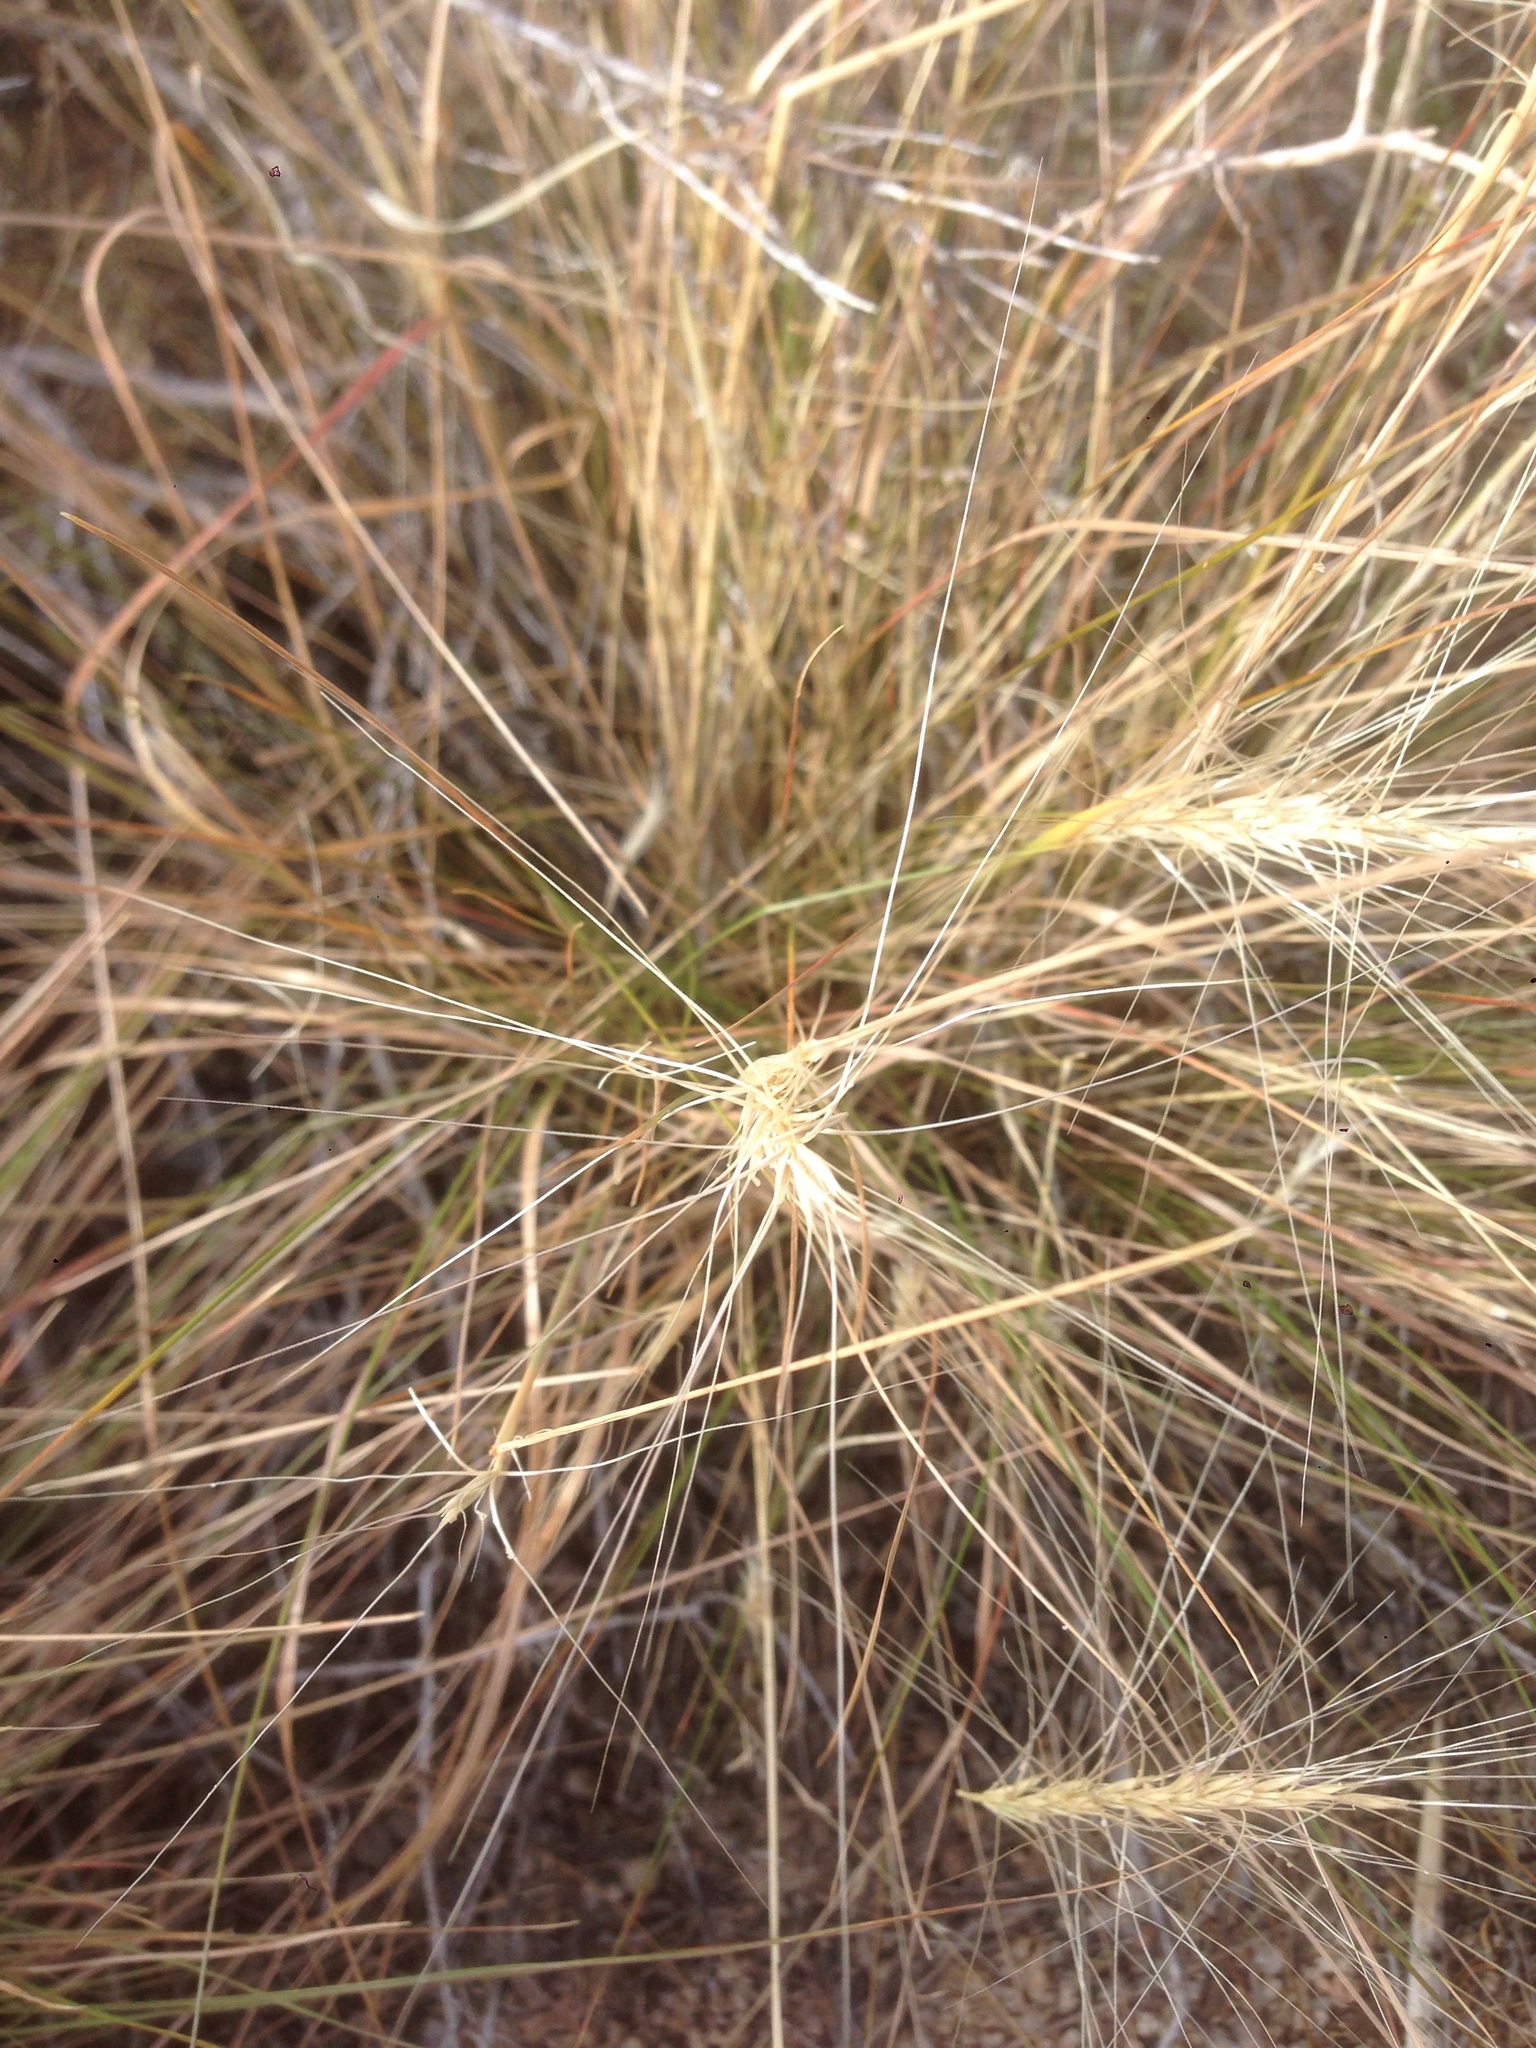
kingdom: Plantae
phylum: Tracheophyta
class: Liliopsida
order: Poales
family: Poaceae
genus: Elymus
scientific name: Elymus elymoides
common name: Bottlebrush squirreltail
